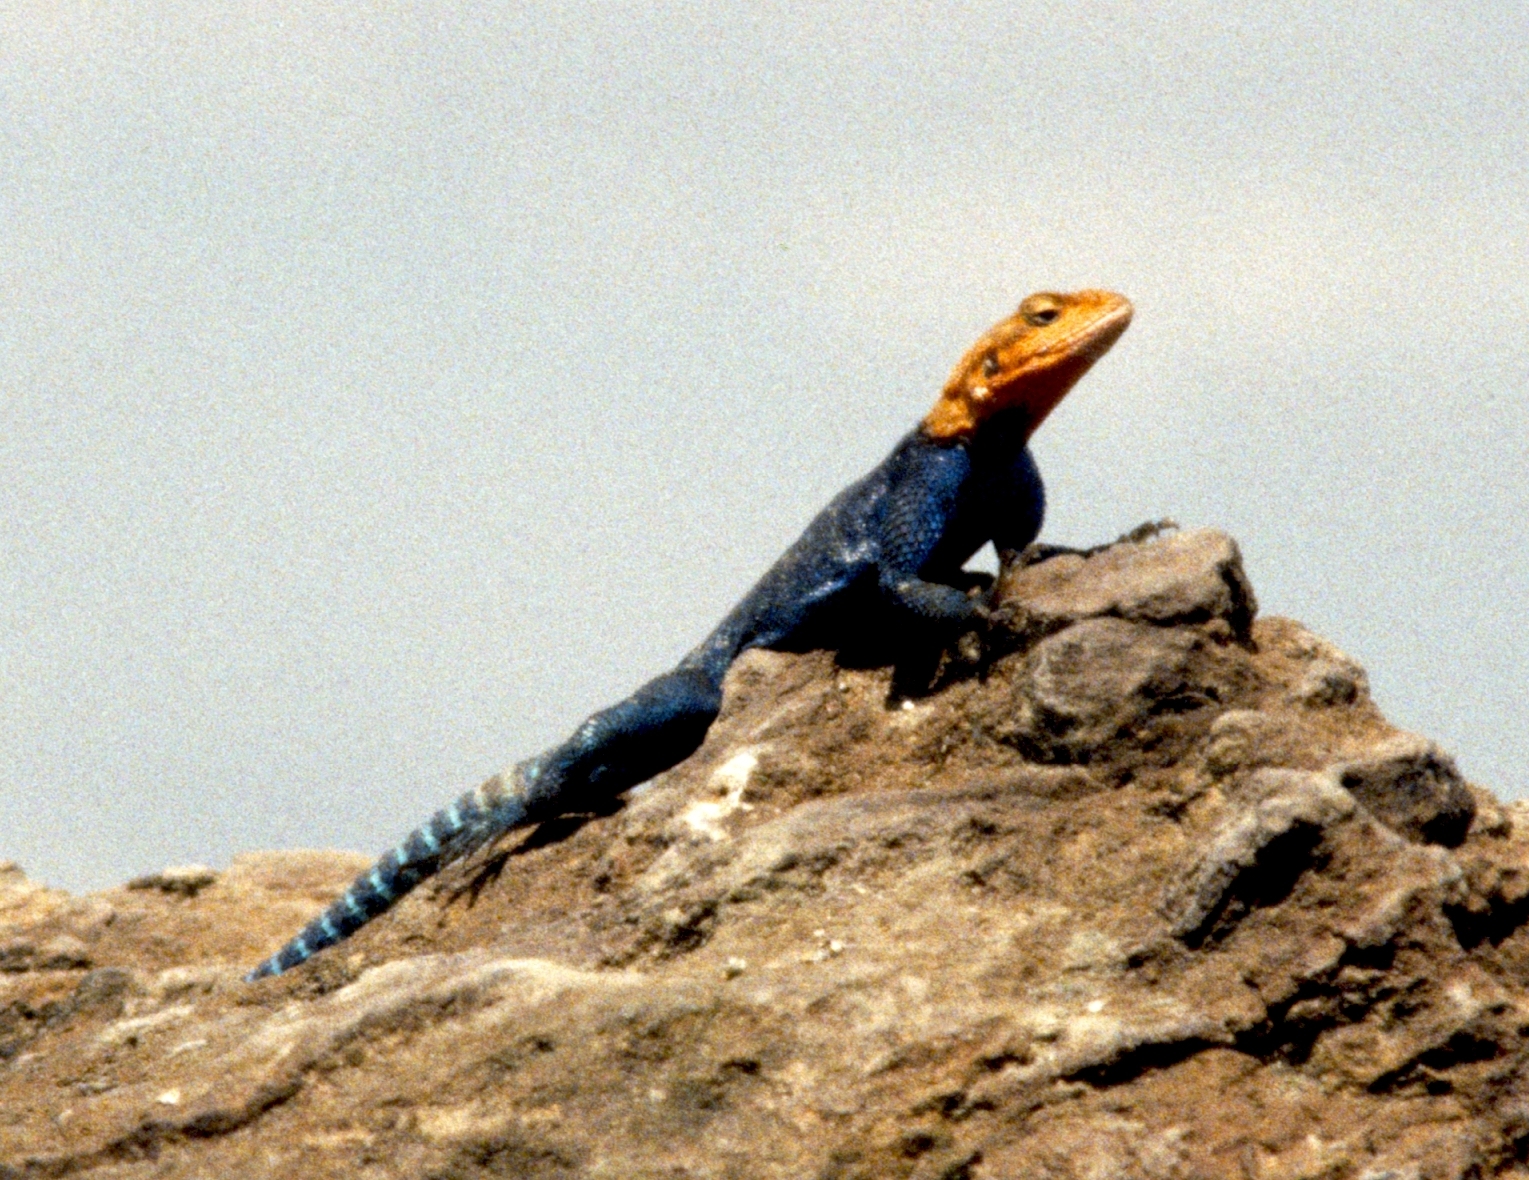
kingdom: Animalia
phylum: Chordata
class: Squamata
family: Agamidae
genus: Agama
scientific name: Agama lionotus
